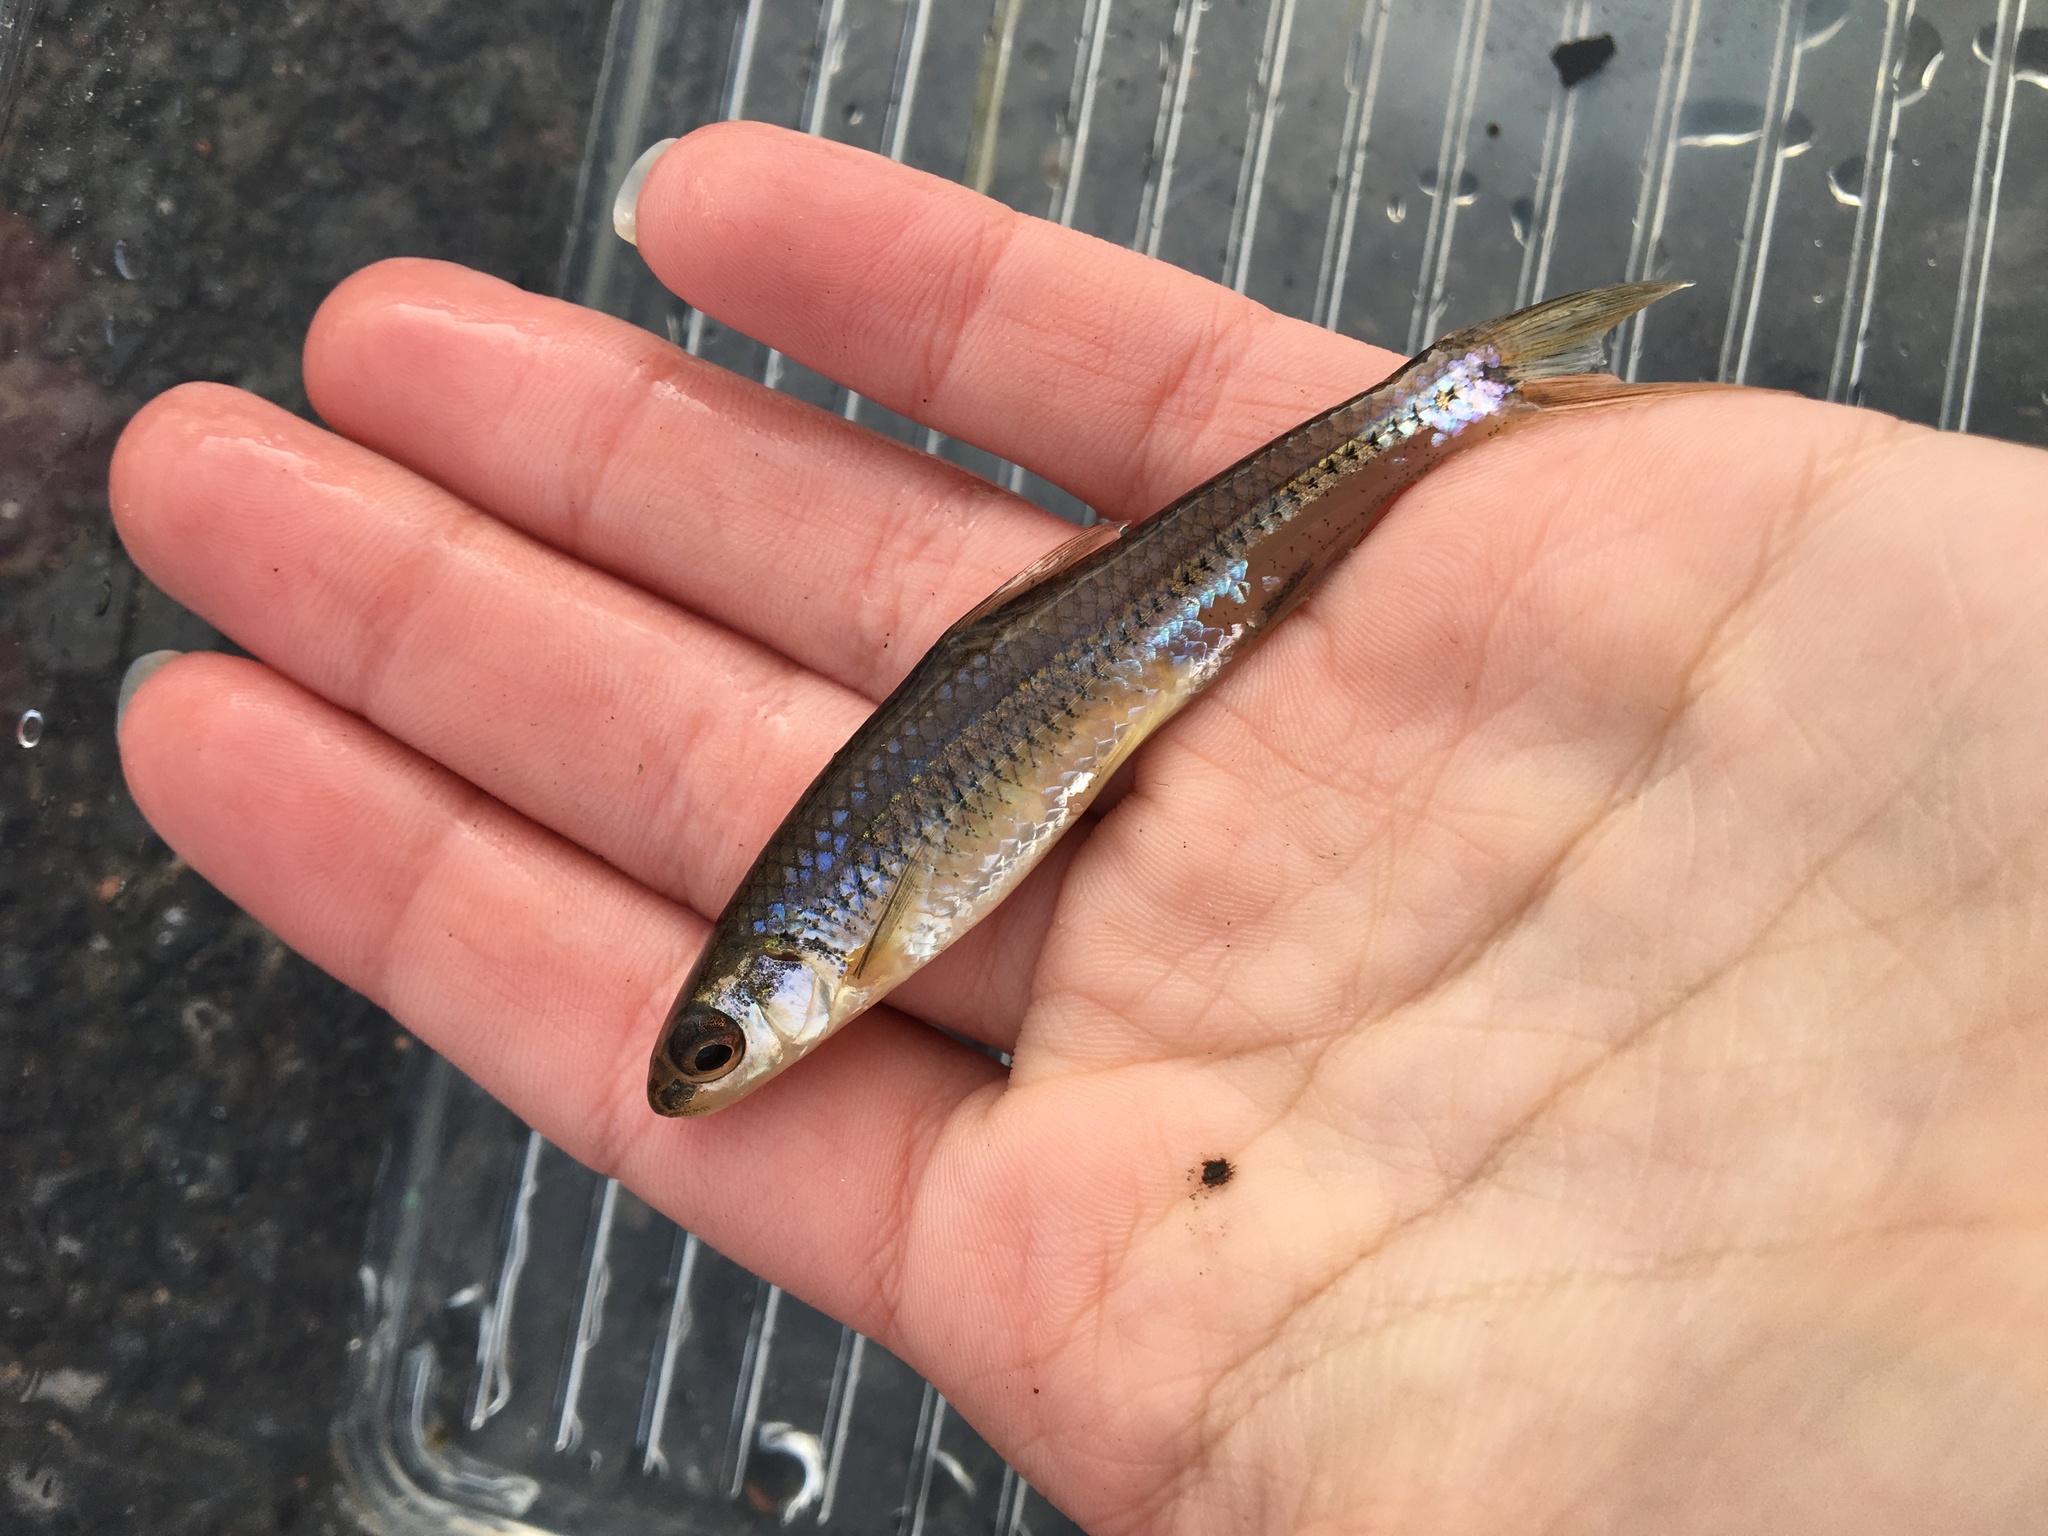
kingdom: Animalia
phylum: Chordata
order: Cypriniformes
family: Cyprinidae
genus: Notropis
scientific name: Notropis
